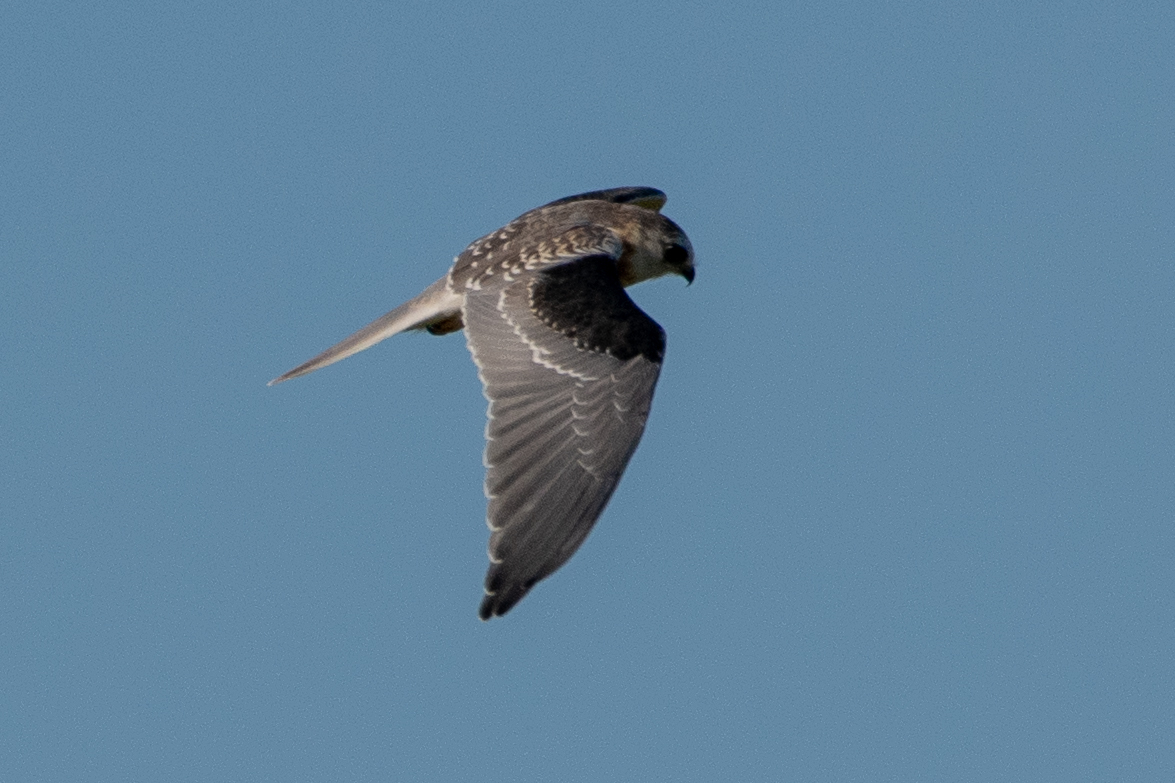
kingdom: Animalia
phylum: Chordata
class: Aves
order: Accipitriformes
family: Accipitridae
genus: Elanus
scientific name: Elanus leucurus
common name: White-tailed kite
